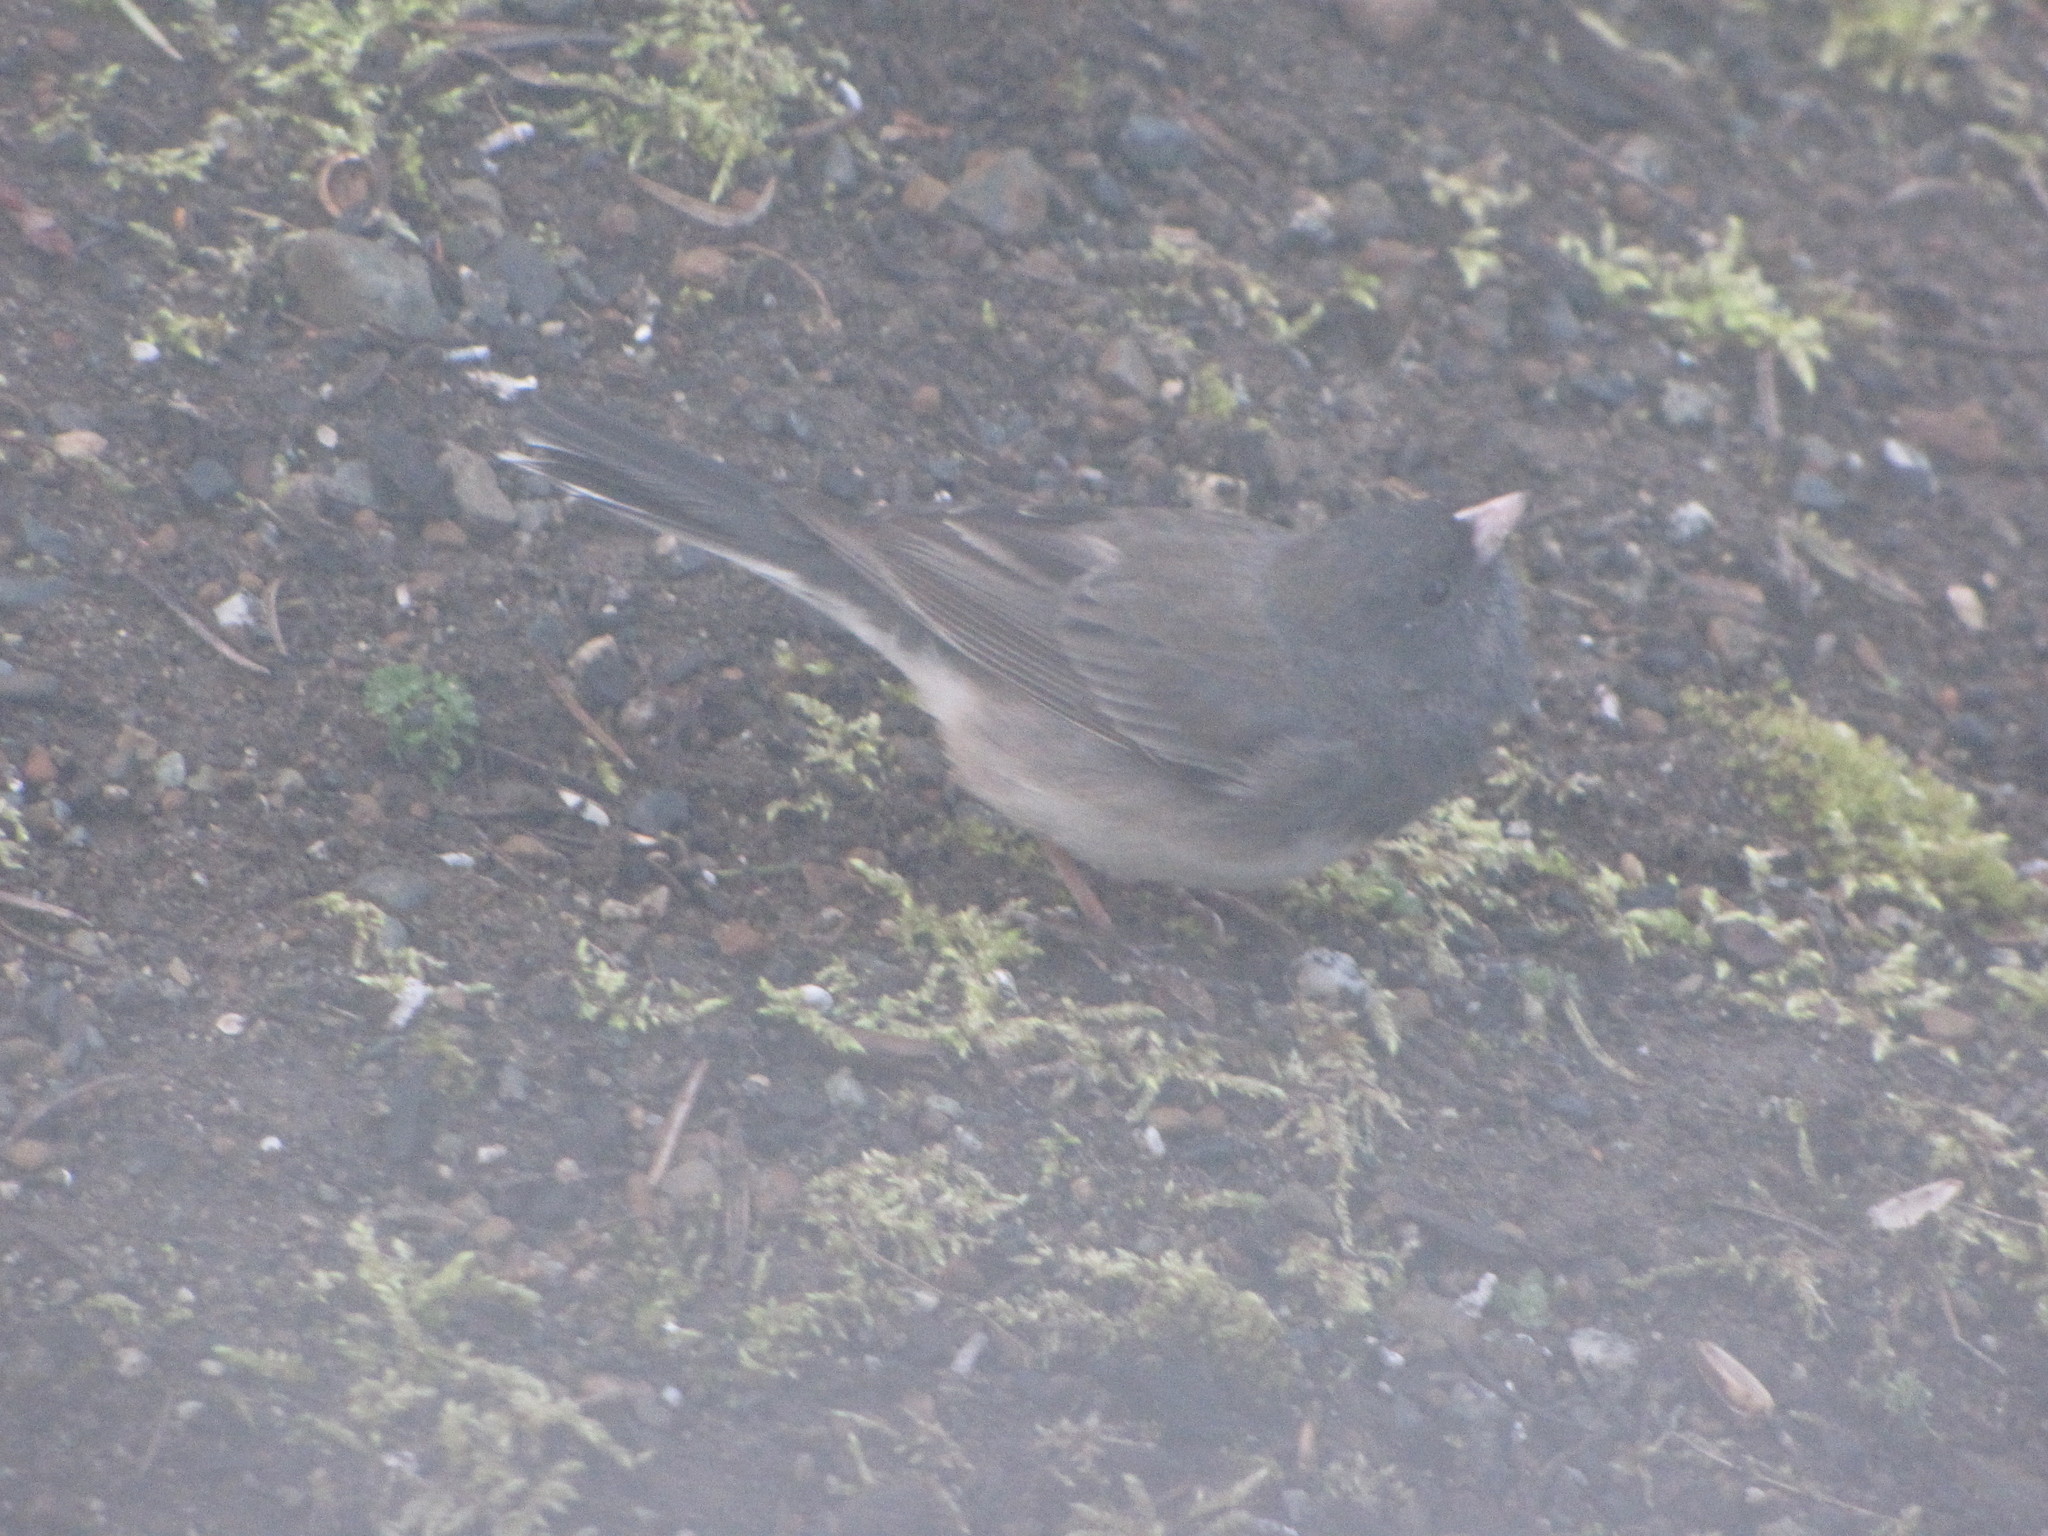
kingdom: Animalia
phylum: Chordata
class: Aves
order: Passeriformes
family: Passerellidae
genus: Junco
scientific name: Junco hyemalis
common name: Dark-eyed junco
